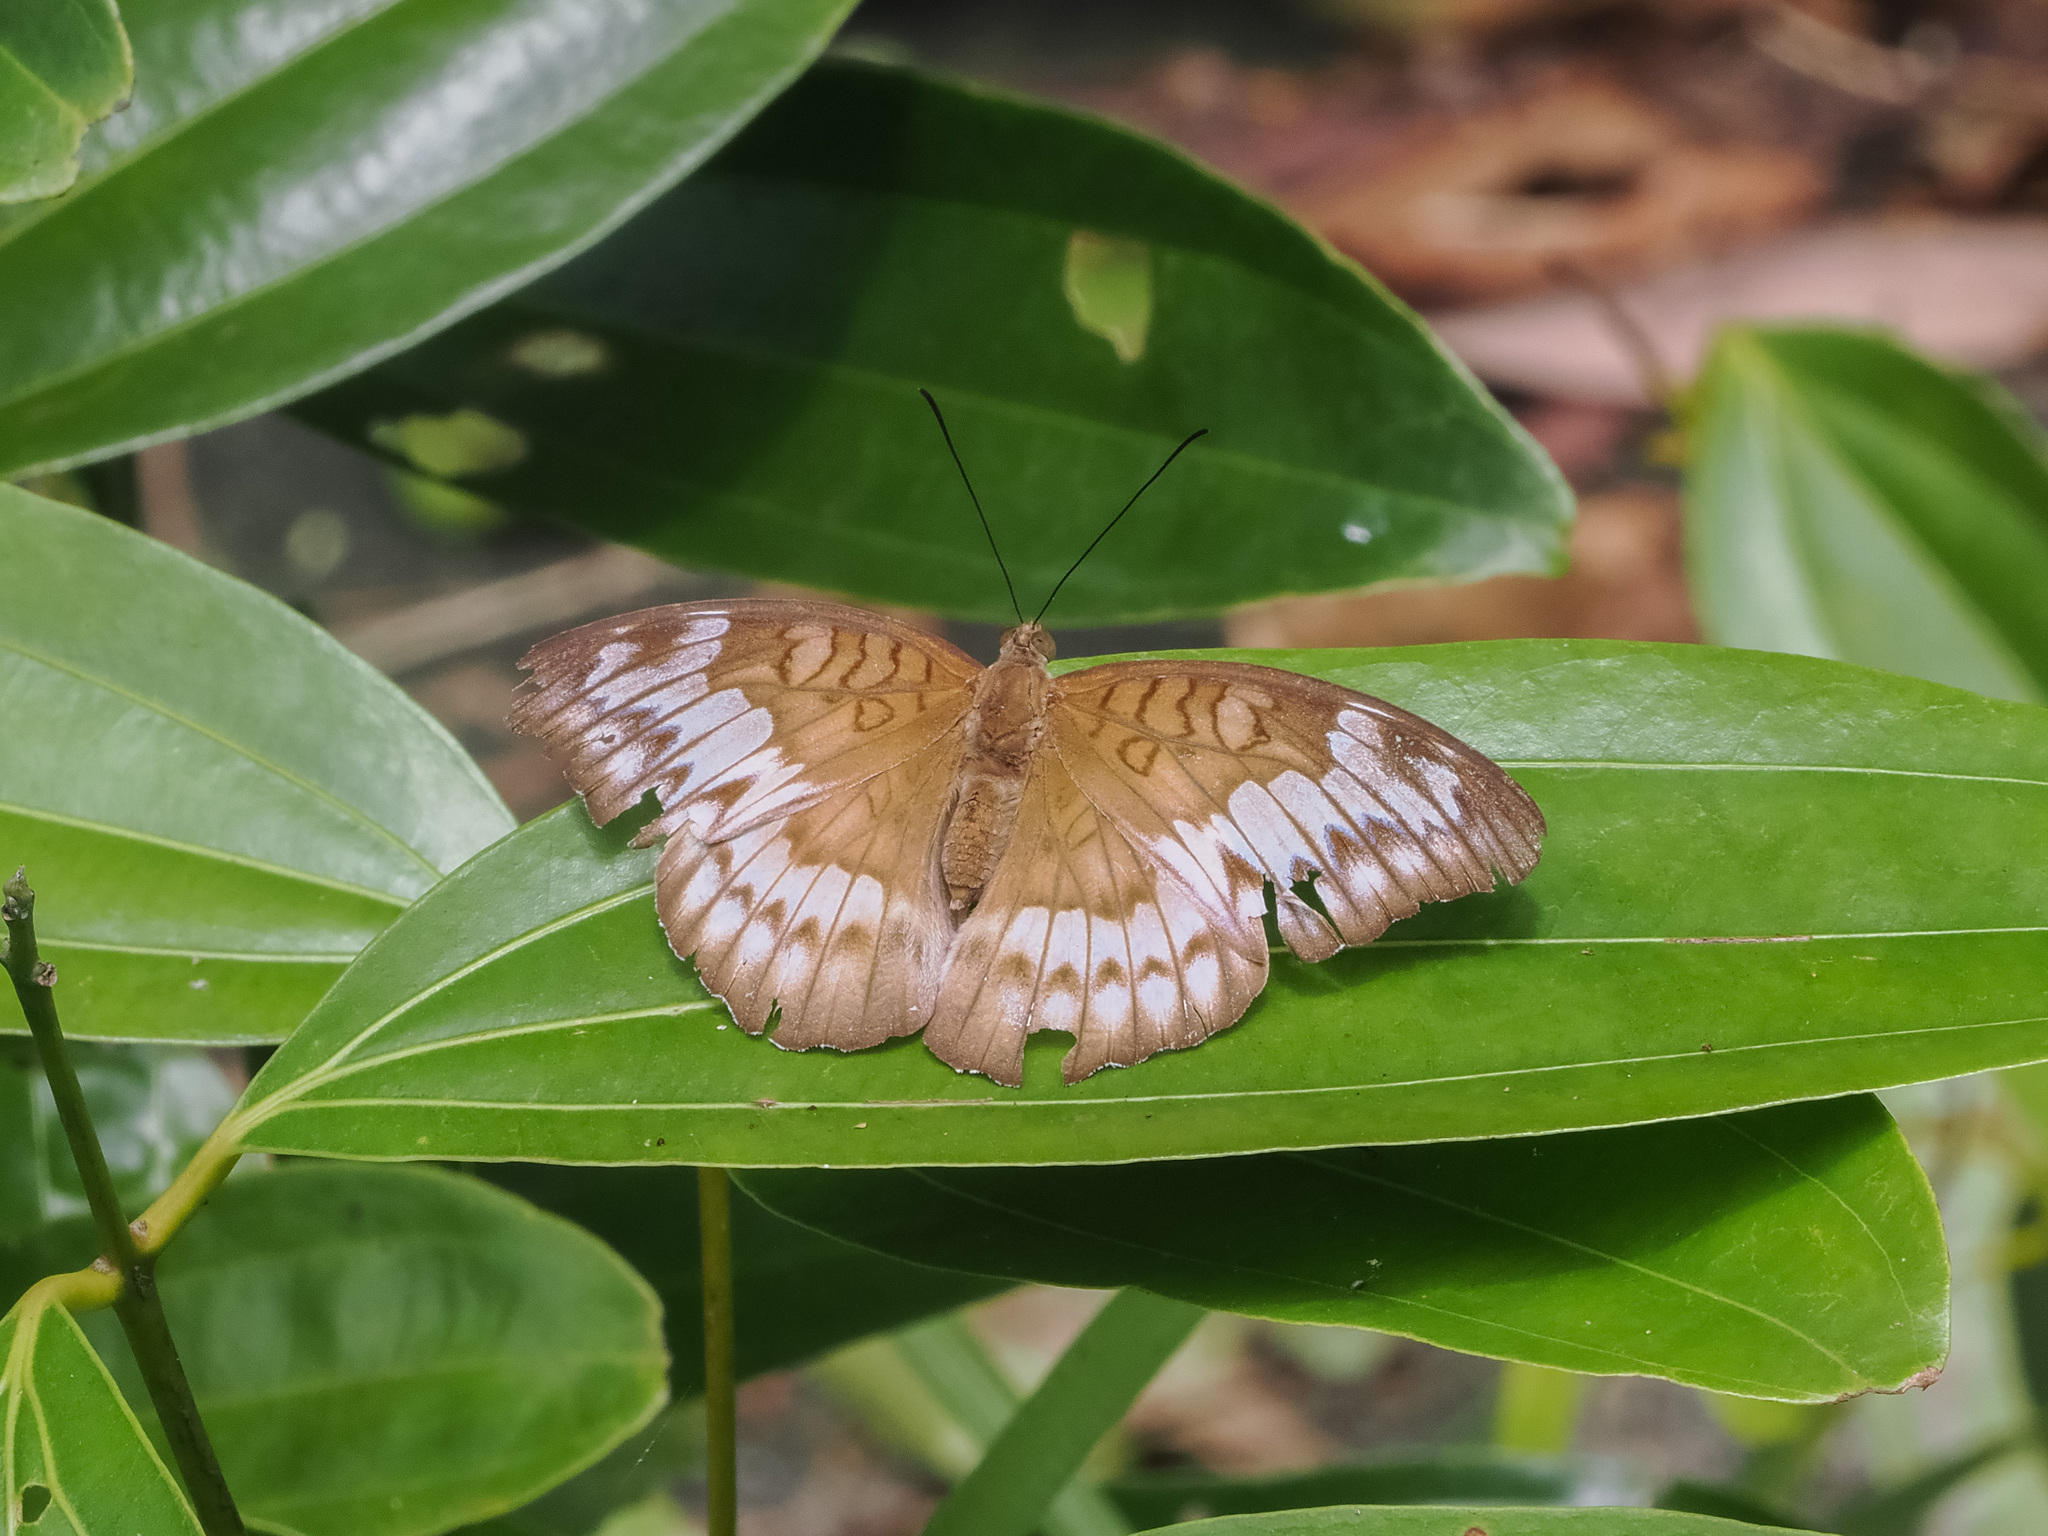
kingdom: Animalia
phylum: Arthropoda
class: Insecta
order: Lepidoptera
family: Nymphalidae
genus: Tanaecia
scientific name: Tanaecia iapis
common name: Horsfield's baron
